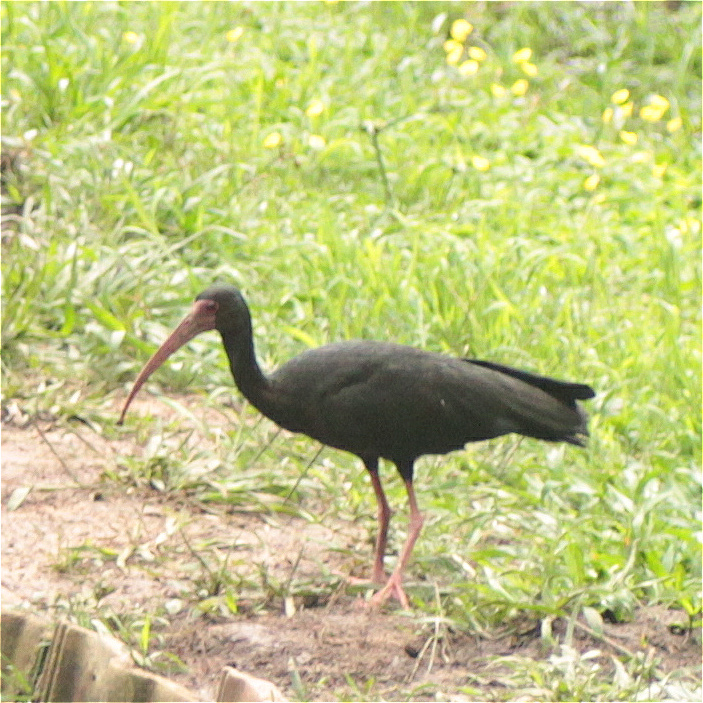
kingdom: Animalia
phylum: Chordata
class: Aves
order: Pelecaniformes
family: Threskiornithidae
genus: Phimosus
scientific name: Phimosus infuscatus
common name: Bare-faced ibis
